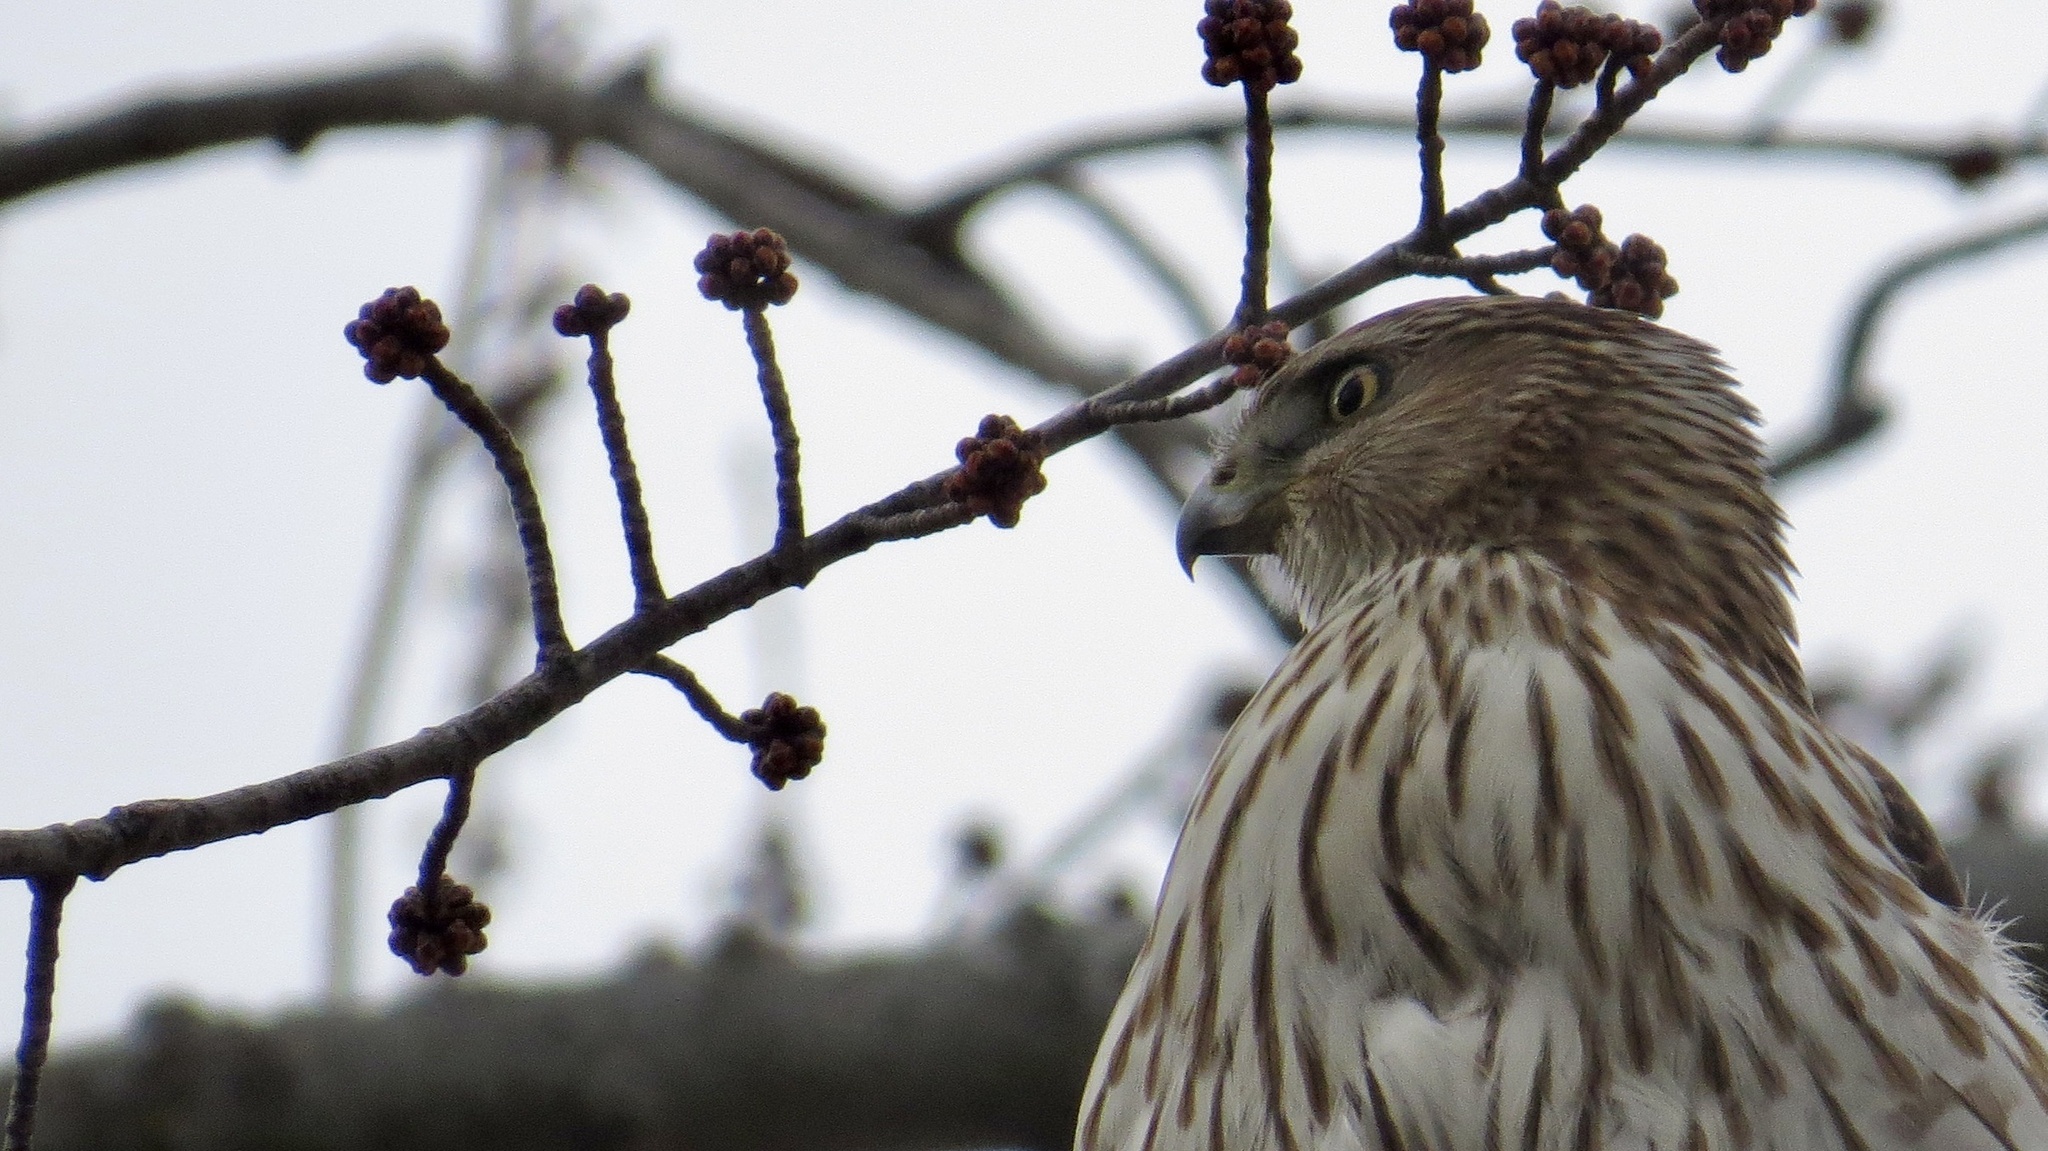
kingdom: Animalia
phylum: Chordata
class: Aves
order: Accipitriformes
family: Accipitridae
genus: Accipiter
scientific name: Accipiter cooperii
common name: Cooper's hawk
